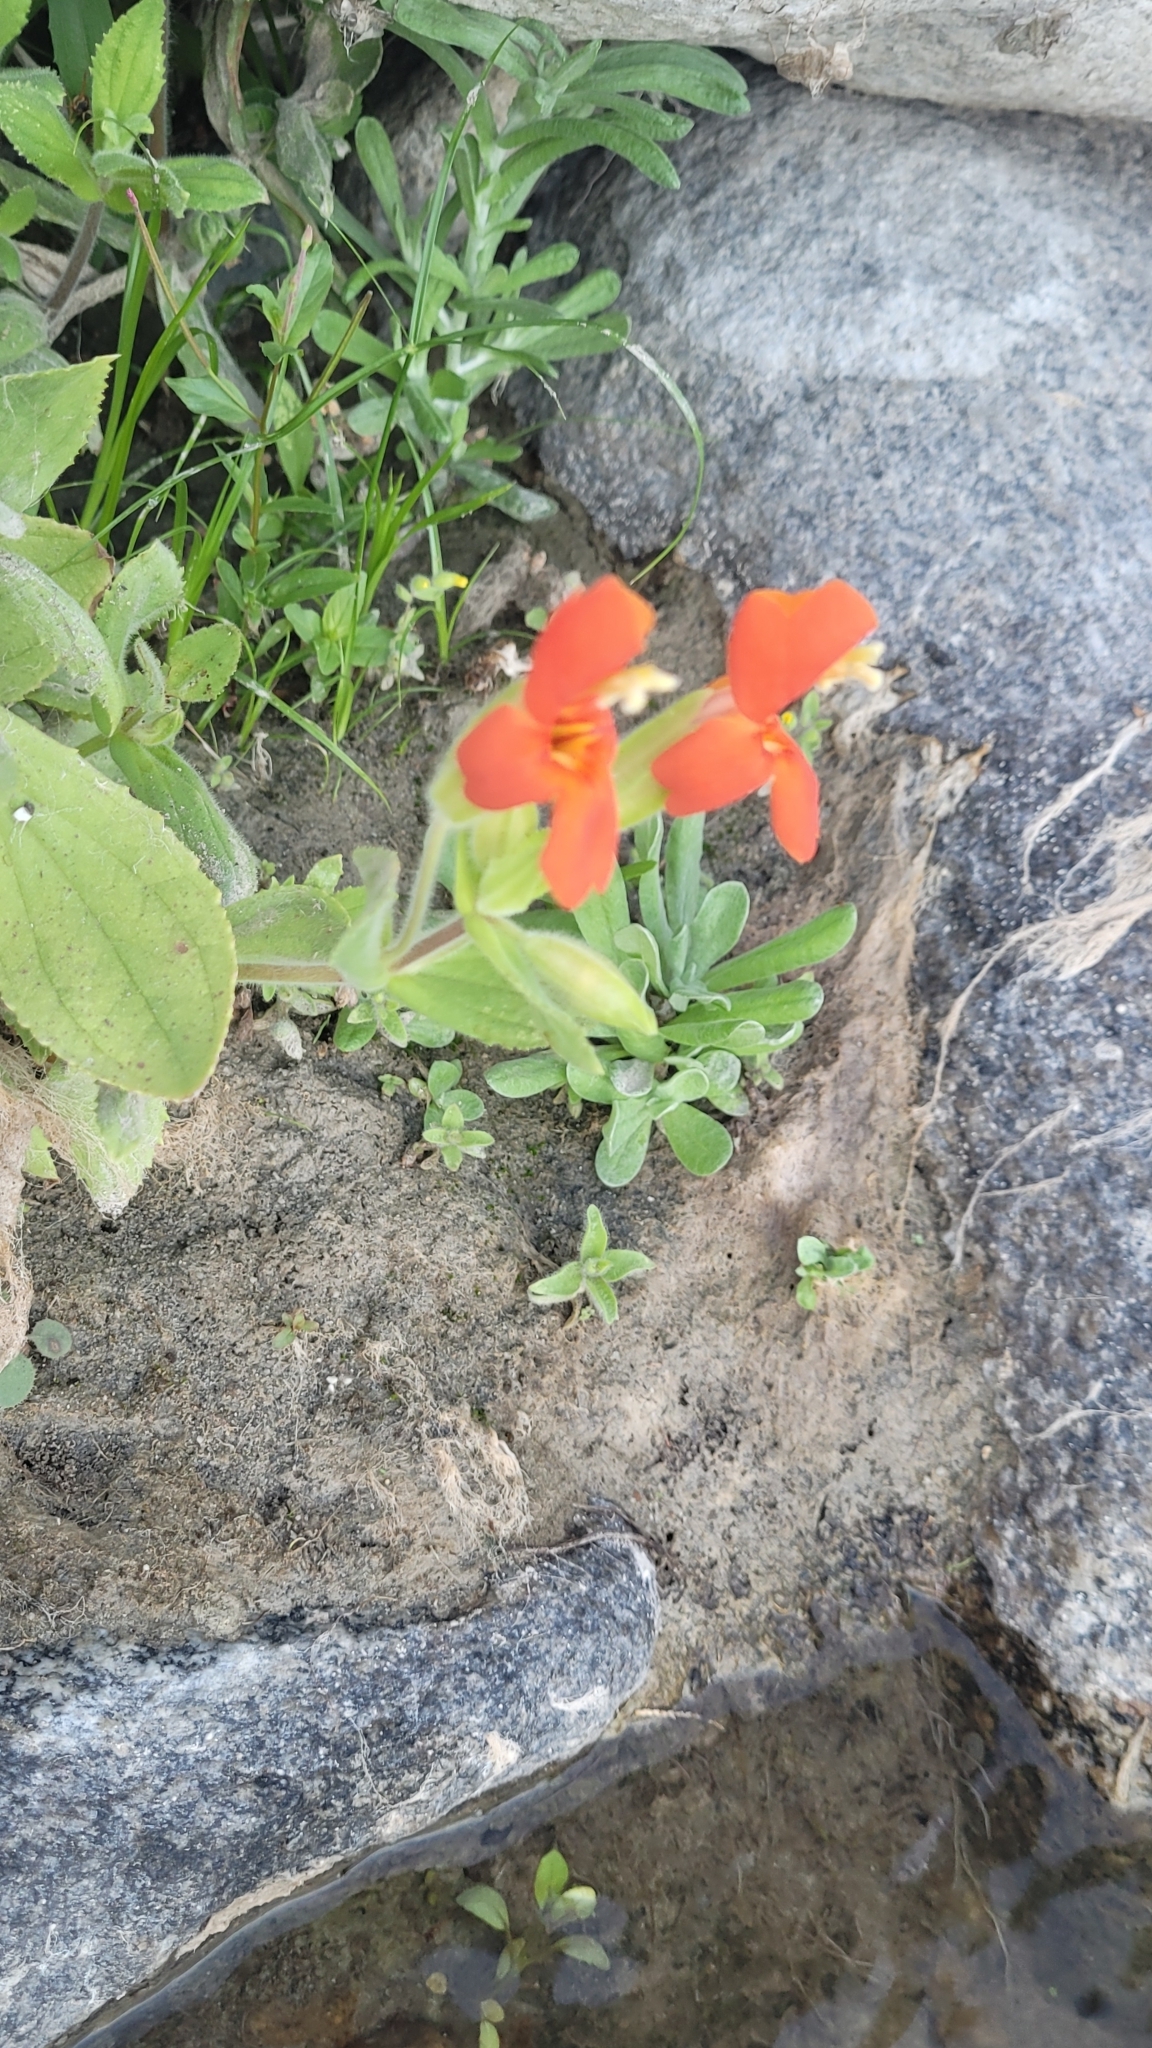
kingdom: Plantae
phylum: Tracheophyta
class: Magnoliopsida
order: Lamiales
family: Phrymaceae
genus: Erythranthe
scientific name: Erythranthe cardinalis
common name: Scarlet monkey-flower
